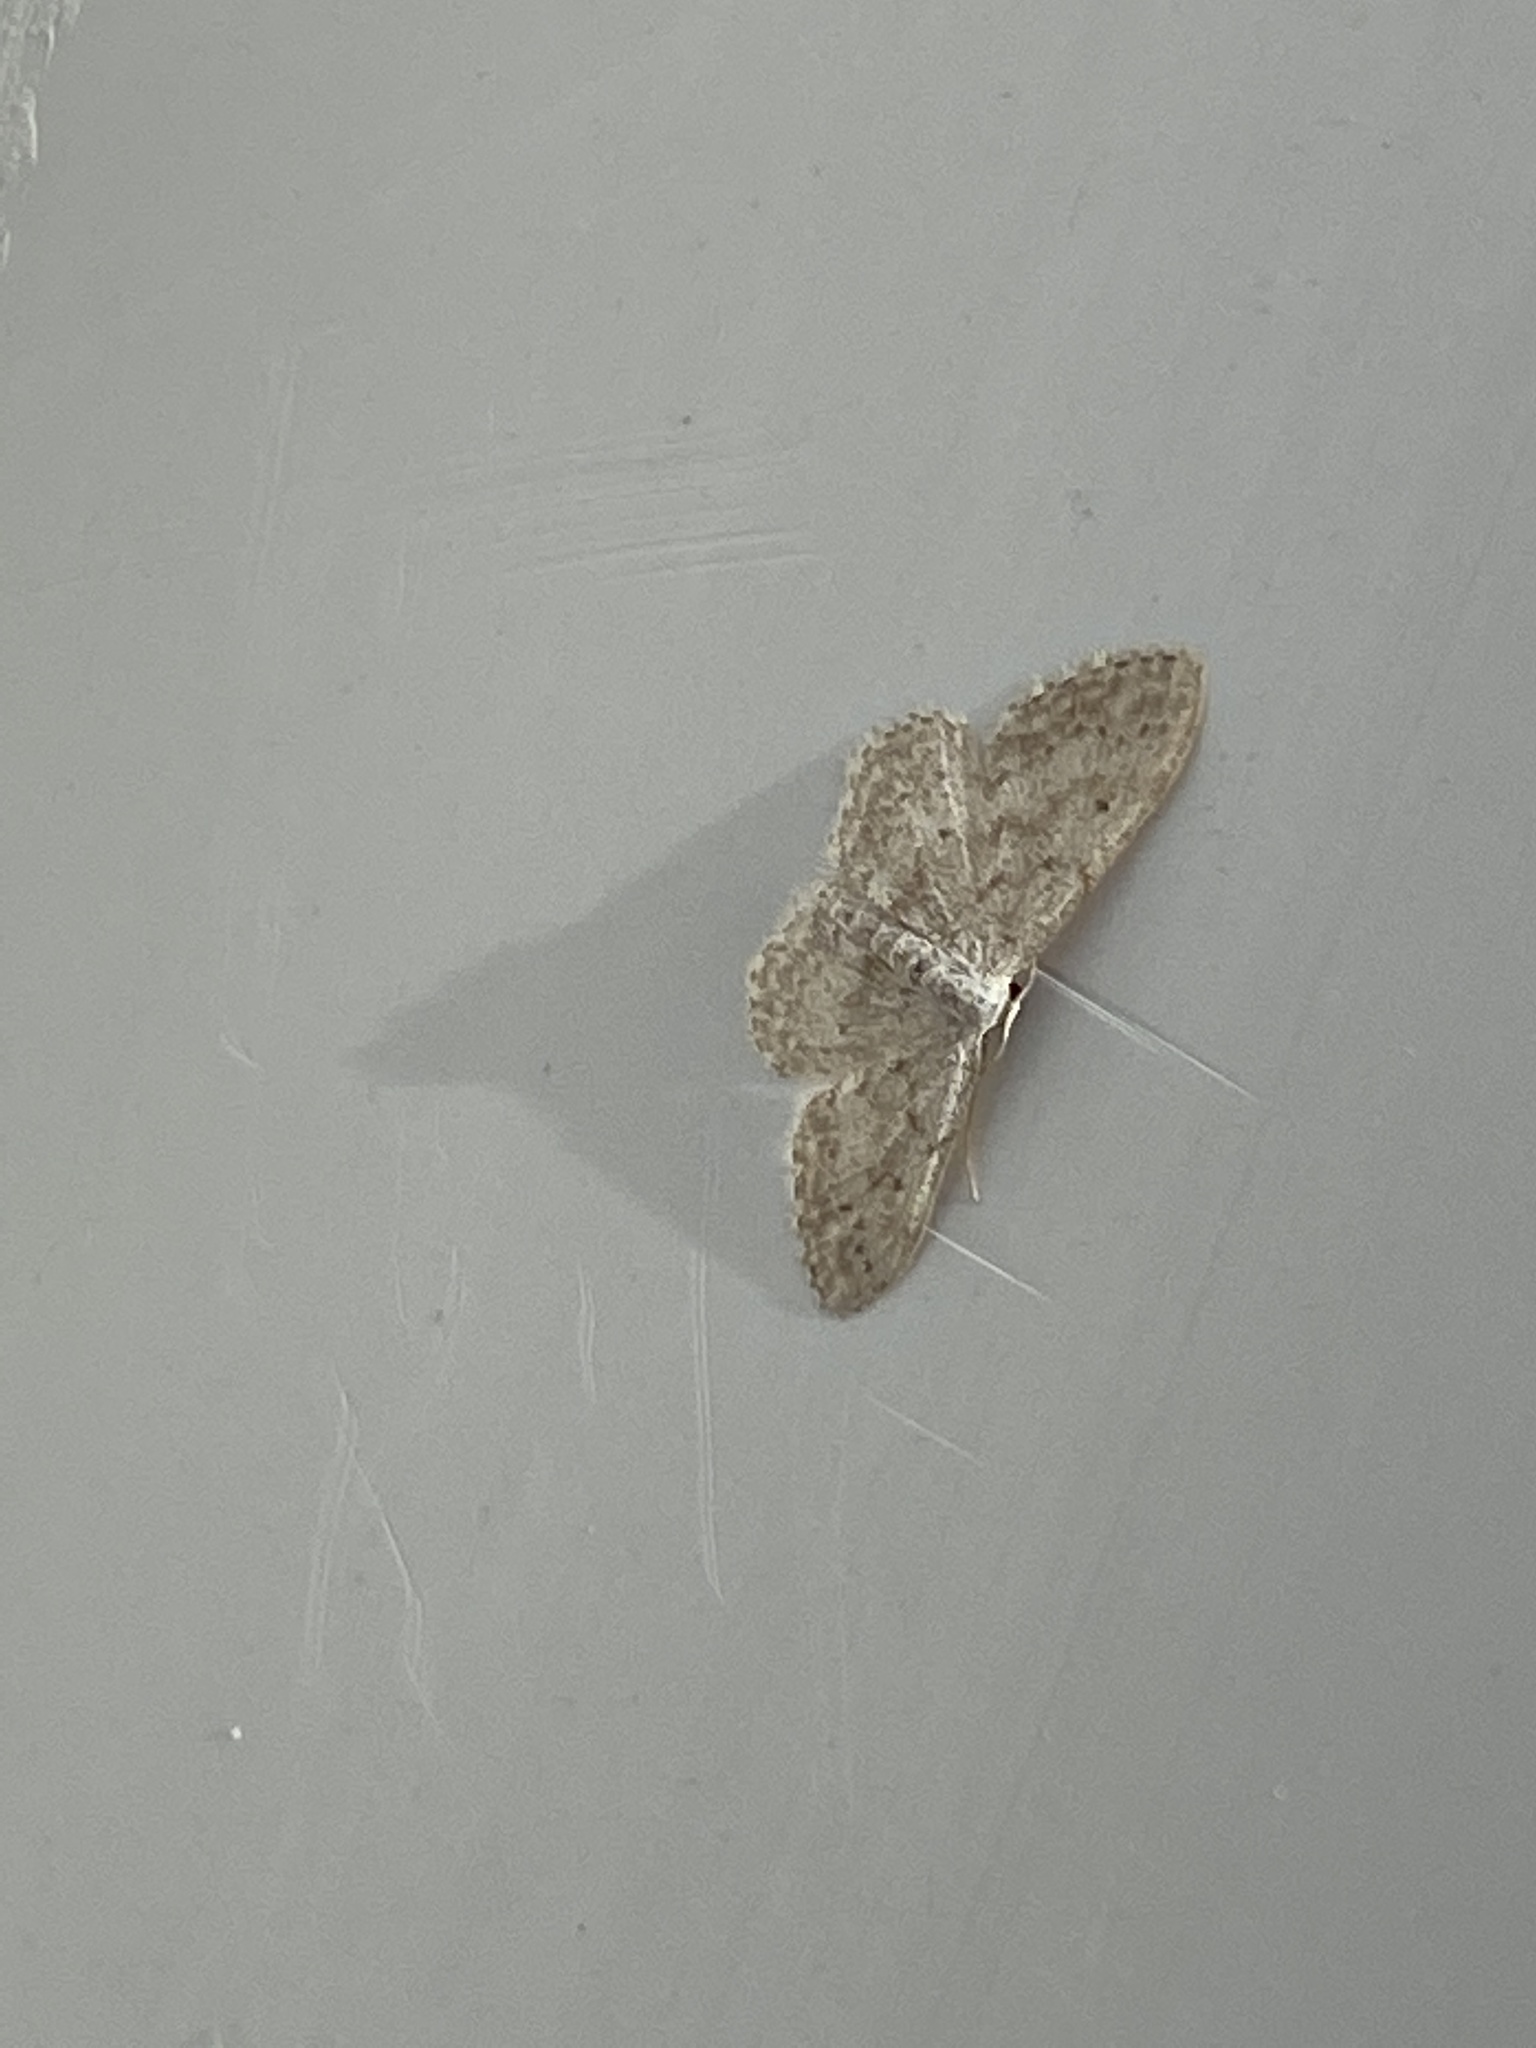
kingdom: Animalia
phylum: Arthropoda
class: Insecta
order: Lepidoptera
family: Geometridae
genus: Idaea
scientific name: Idaea seriata
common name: Small dusty wave
